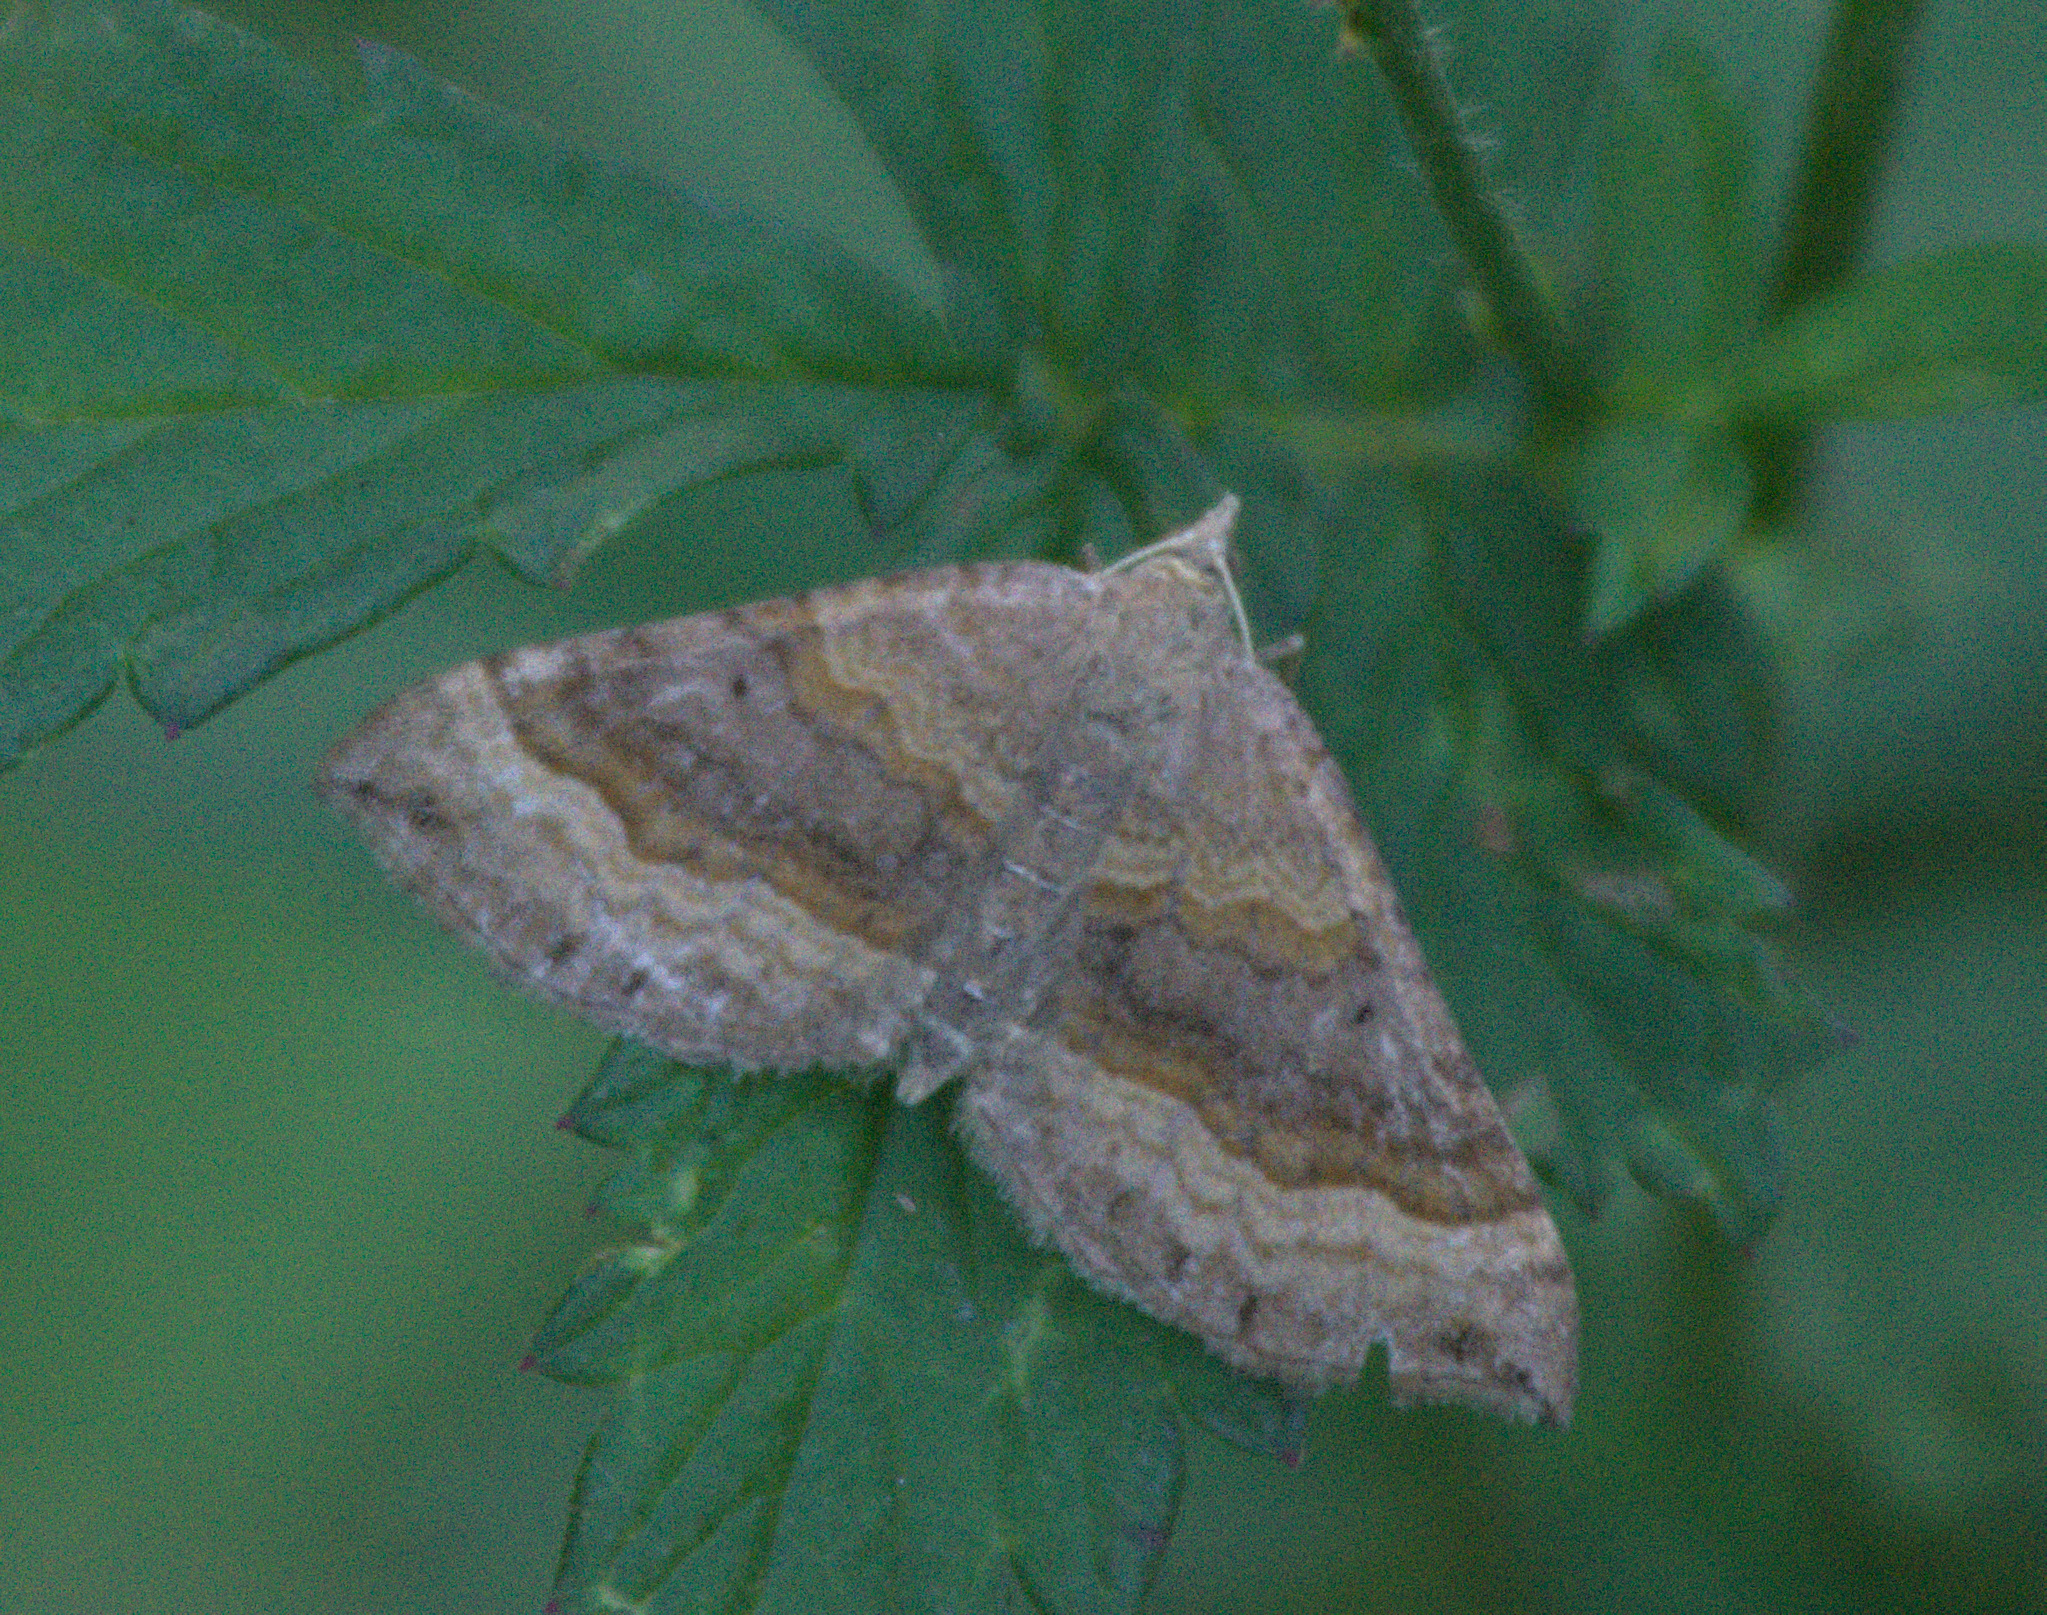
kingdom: Animalia
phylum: Arthropoda
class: Insecta
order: Lepidoptera
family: Geometridae
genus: Scotopteryx
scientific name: Scotopteryx chenopodiata
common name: Shaded broad-bar
